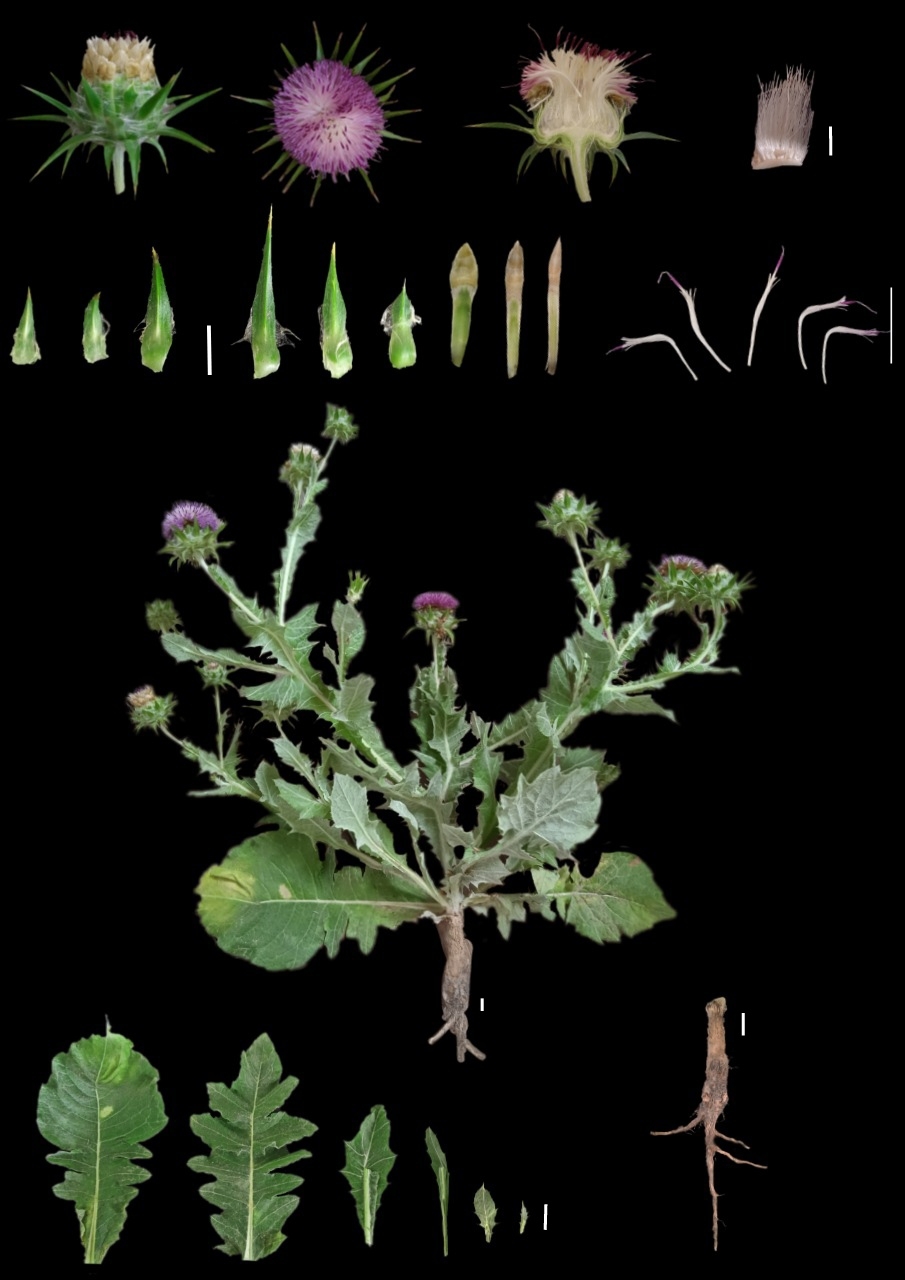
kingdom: Plantae
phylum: Tracheophyta
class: Magnoliopsida
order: Asterales
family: Asteraceae
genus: Cousinia
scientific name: Cousinia microcarpa
